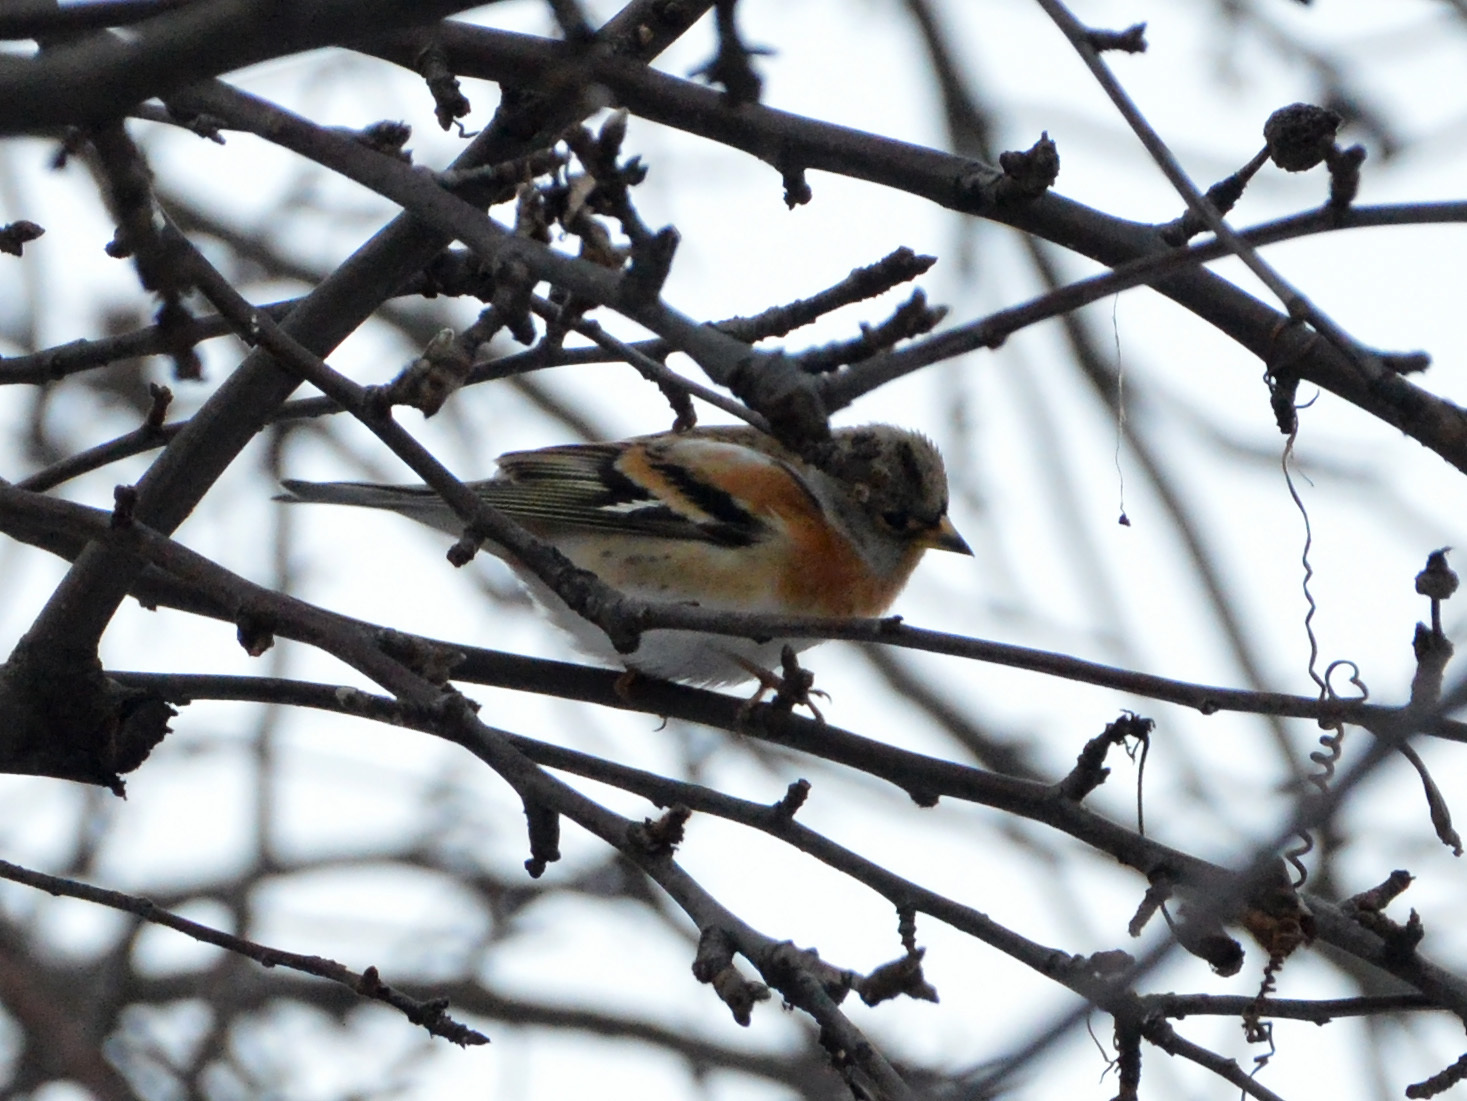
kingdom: Animalia
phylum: Chordata
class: Aves
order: Passeriformes
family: Fringillidae
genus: Fringilla
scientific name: Fringilla montifringilla
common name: Brambling
